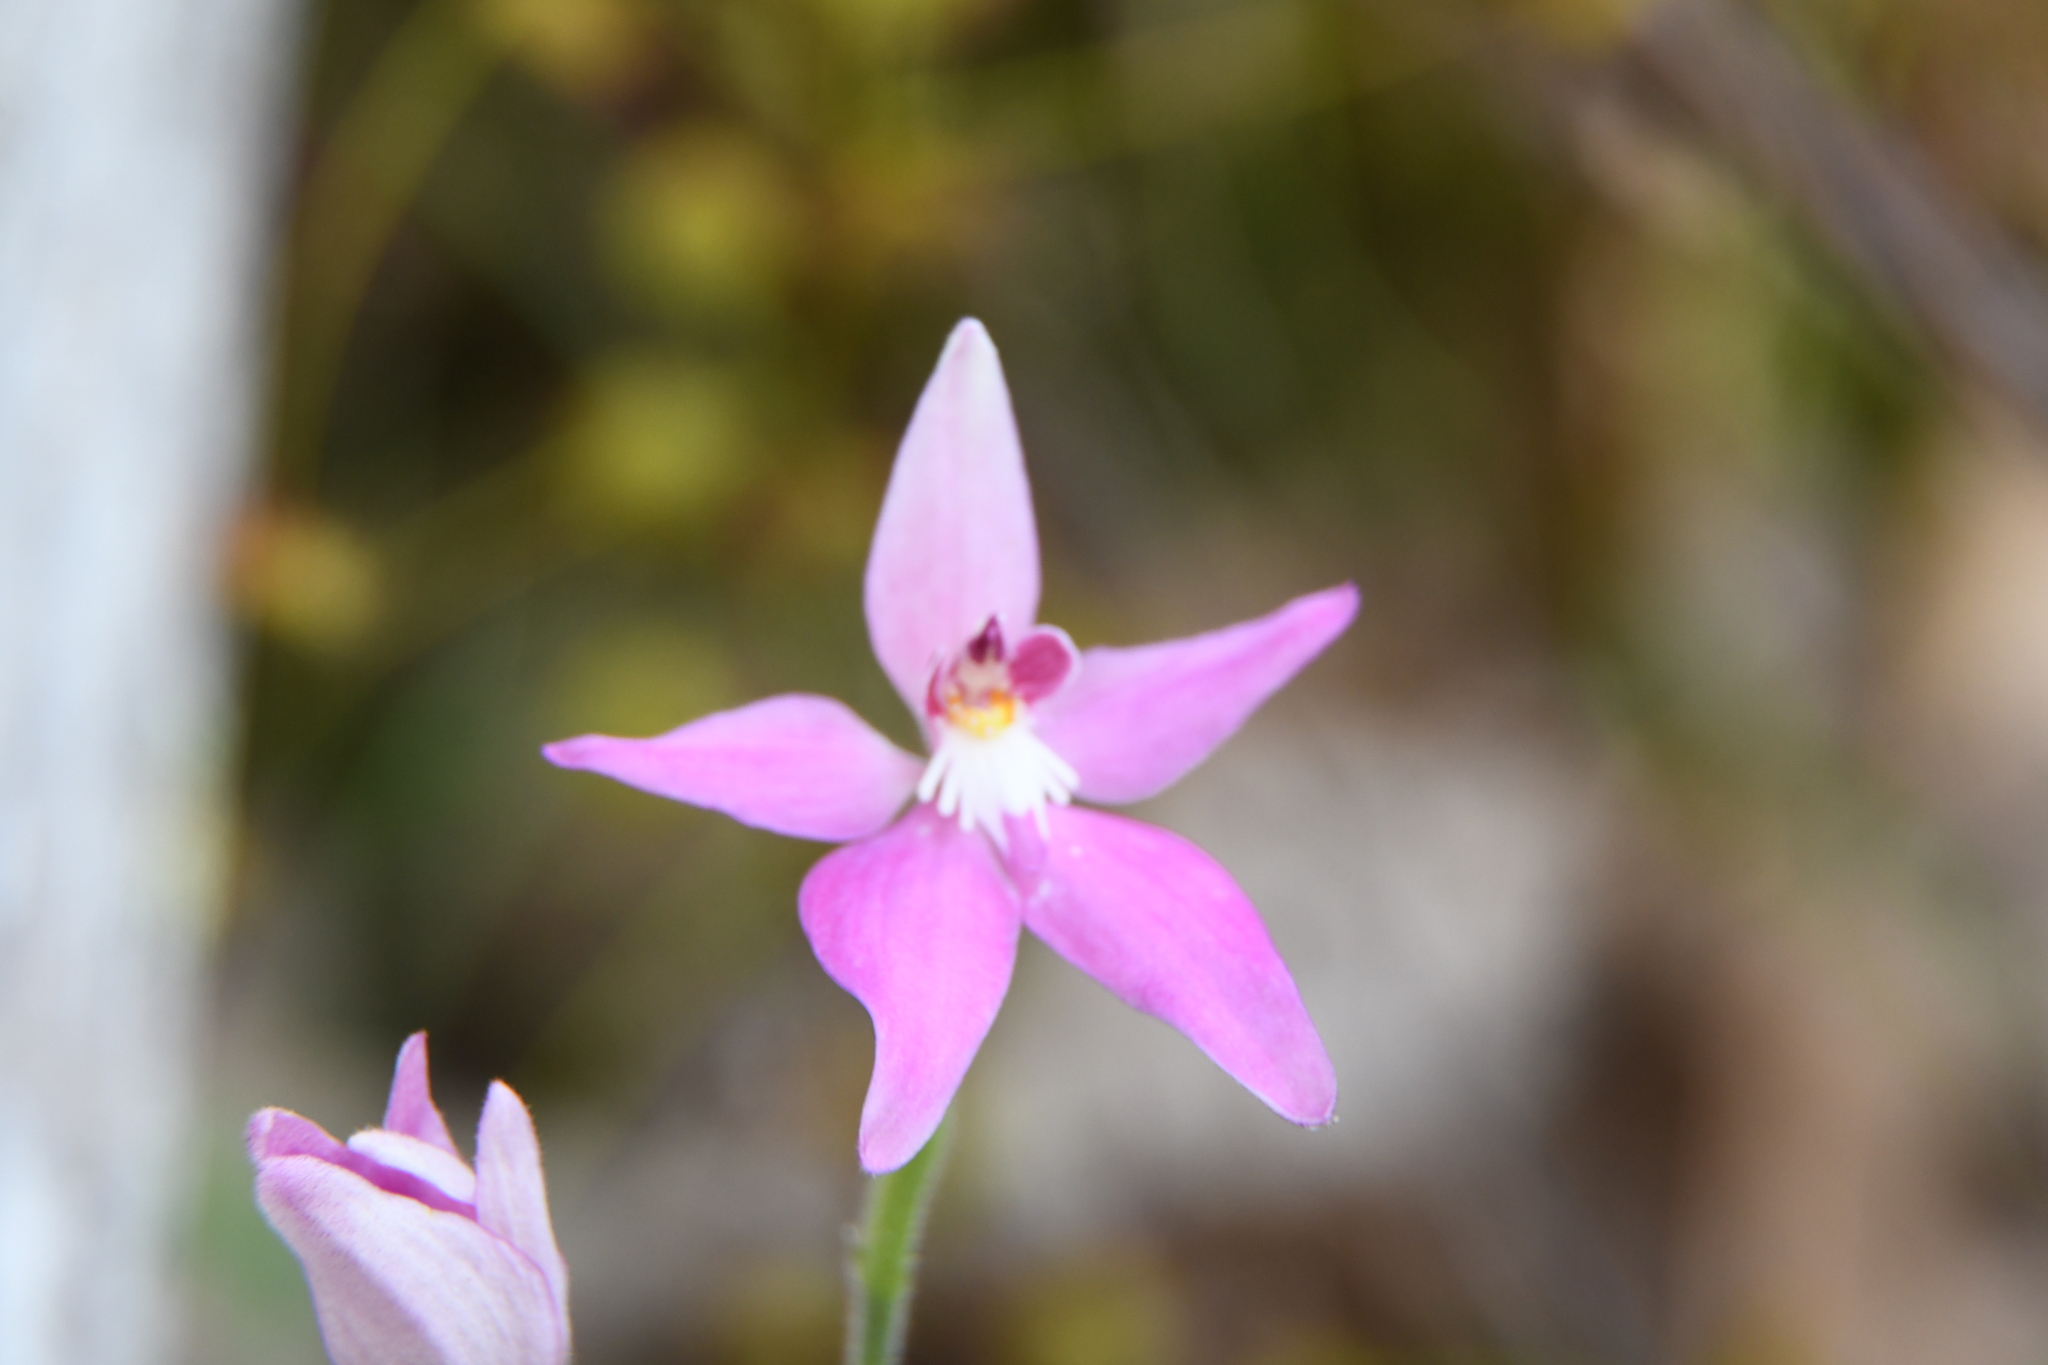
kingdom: Plantae
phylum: Tracheophyta
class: Liliopsida
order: Asparagales
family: Orchidaceae
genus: Caladenia
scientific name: Caladenia latifolia
